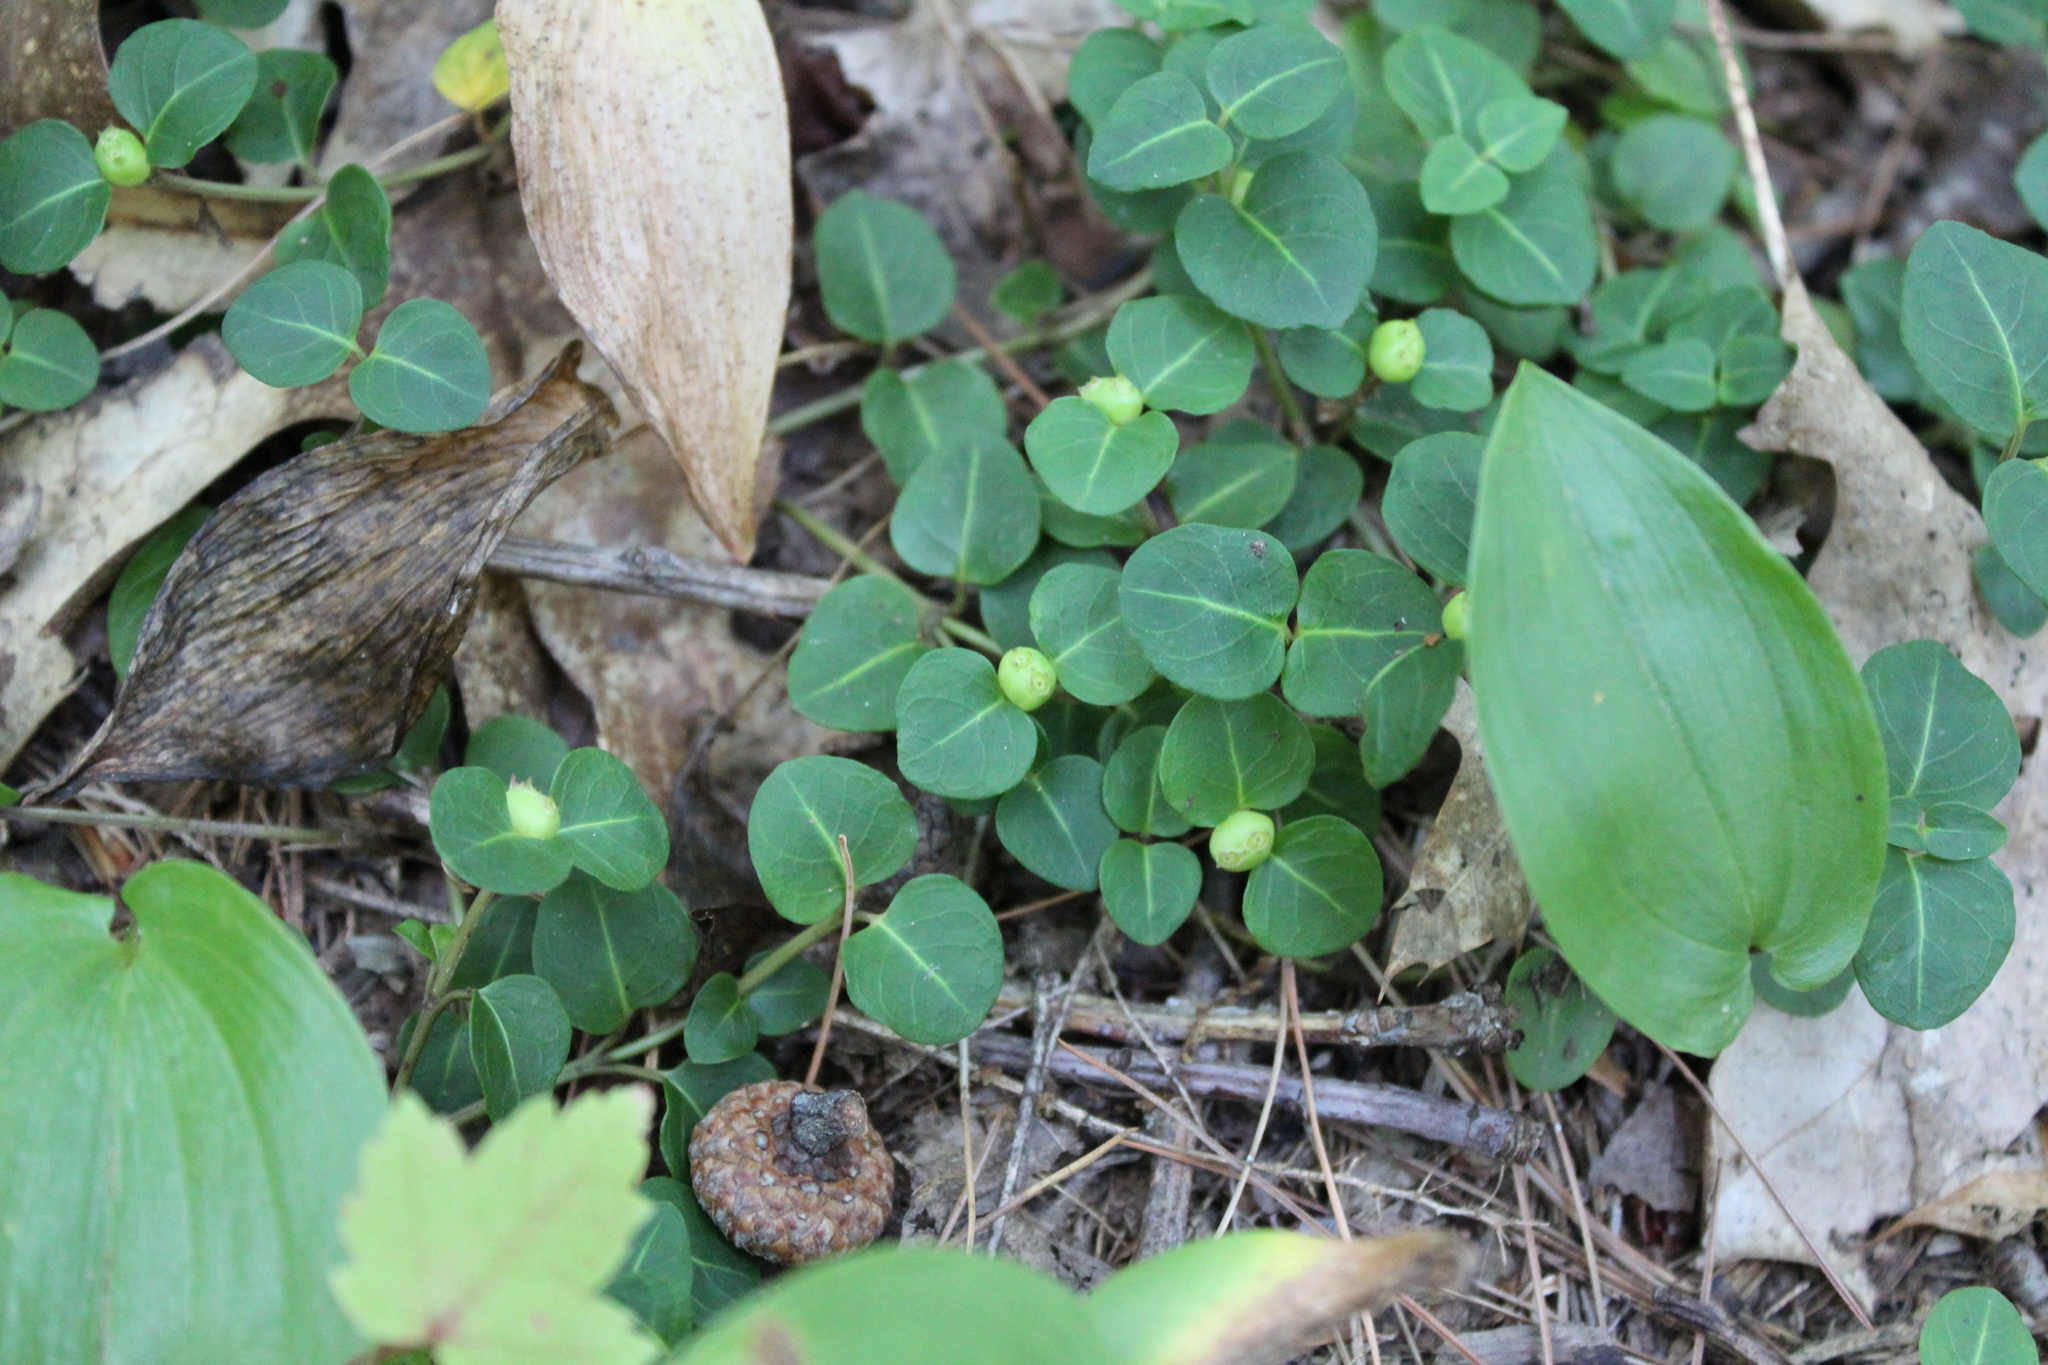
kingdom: Plantae
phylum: Tracheophyta
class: Magnoliopsida
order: Gentianales
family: Rubiaceae
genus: Mitchella
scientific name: Mitchella repens
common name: Partridge-berry
